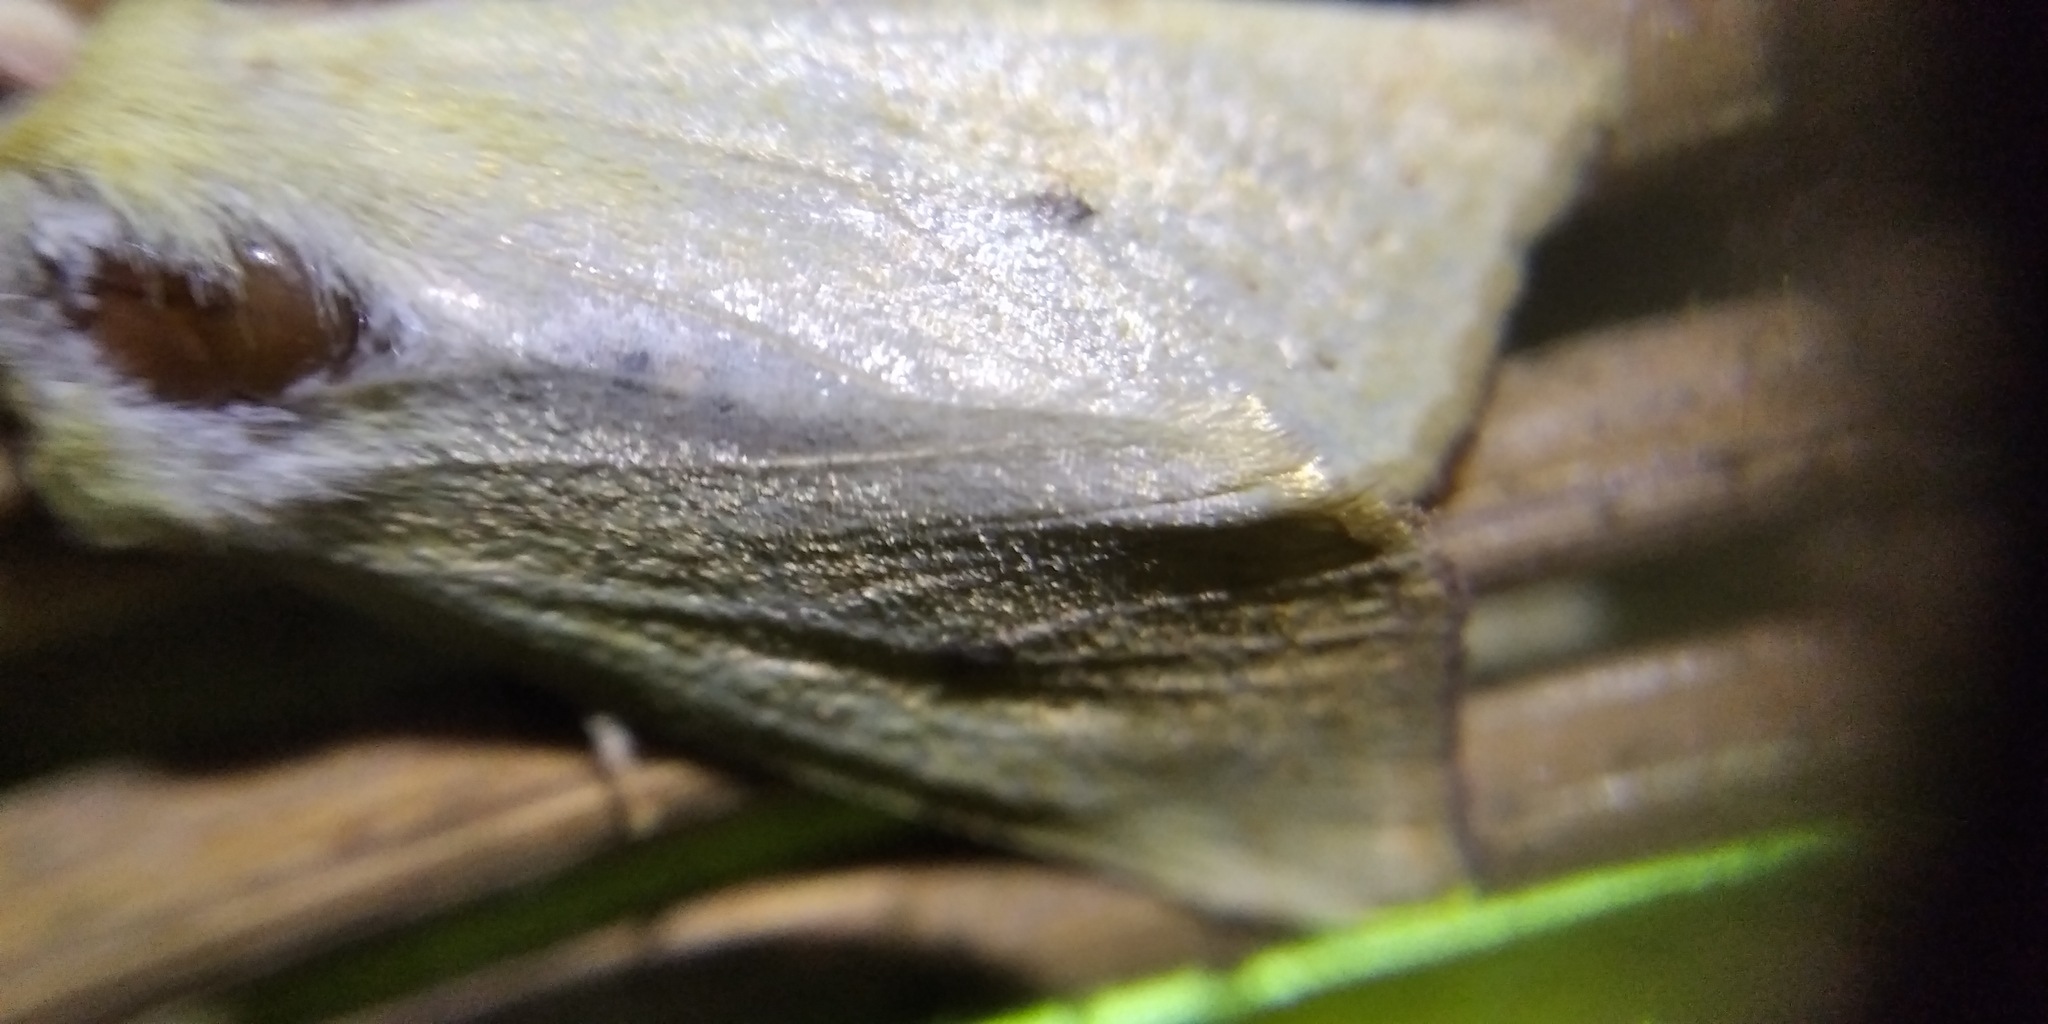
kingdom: Animalia
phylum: Arthropoda
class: Insecta
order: Lepidoptera
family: Noctuidae
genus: Xanthia
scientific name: Xanthia icteritia
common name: The sallow
